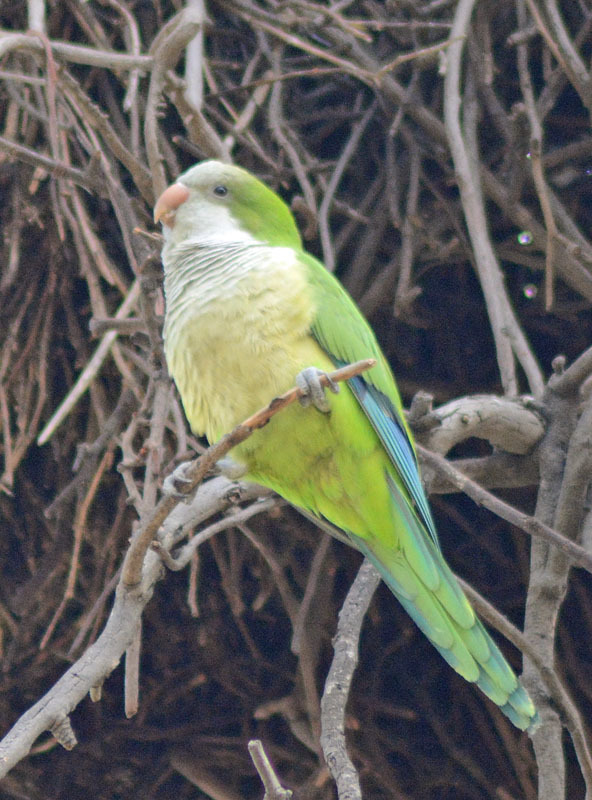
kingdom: Animalia
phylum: Chordata
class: Aves
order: Psittaciformes
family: Psittacidae
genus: Myiopsitta
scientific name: Myiopsitta monachus
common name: Monk parakeet
